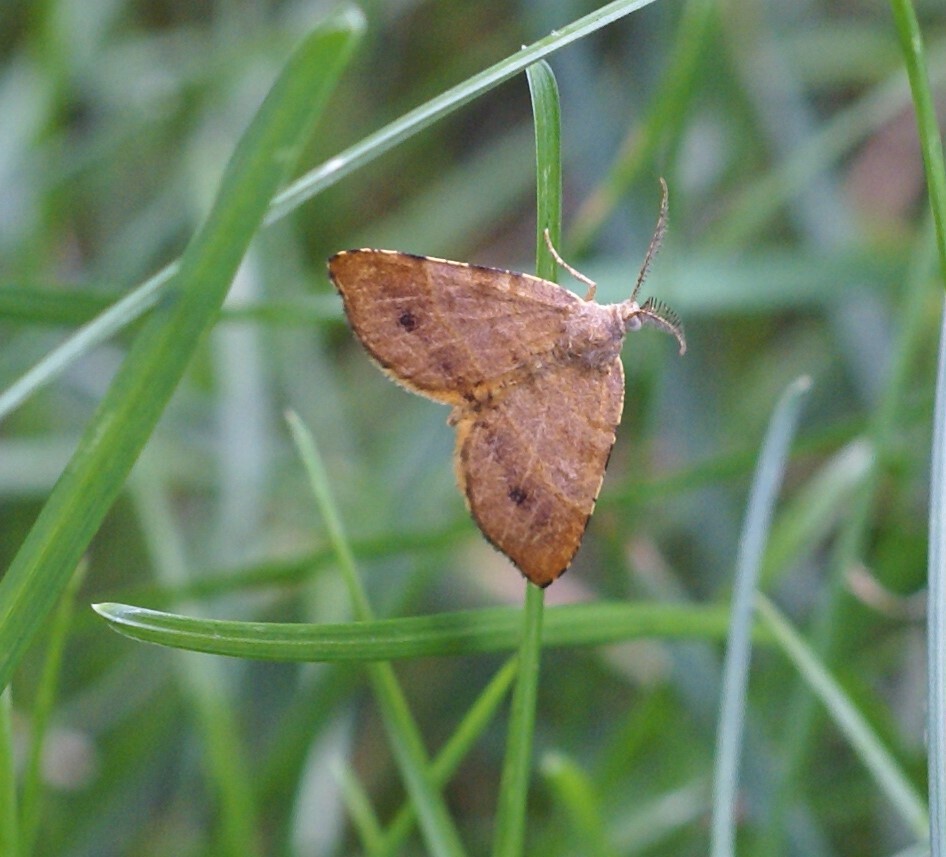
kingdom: Animalia
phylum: Arthropoda
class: Insecta
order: Lepidoptera
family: Geometridae
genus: Mellilla
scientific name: Mellilla xanthometata
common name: Orange wing moth
